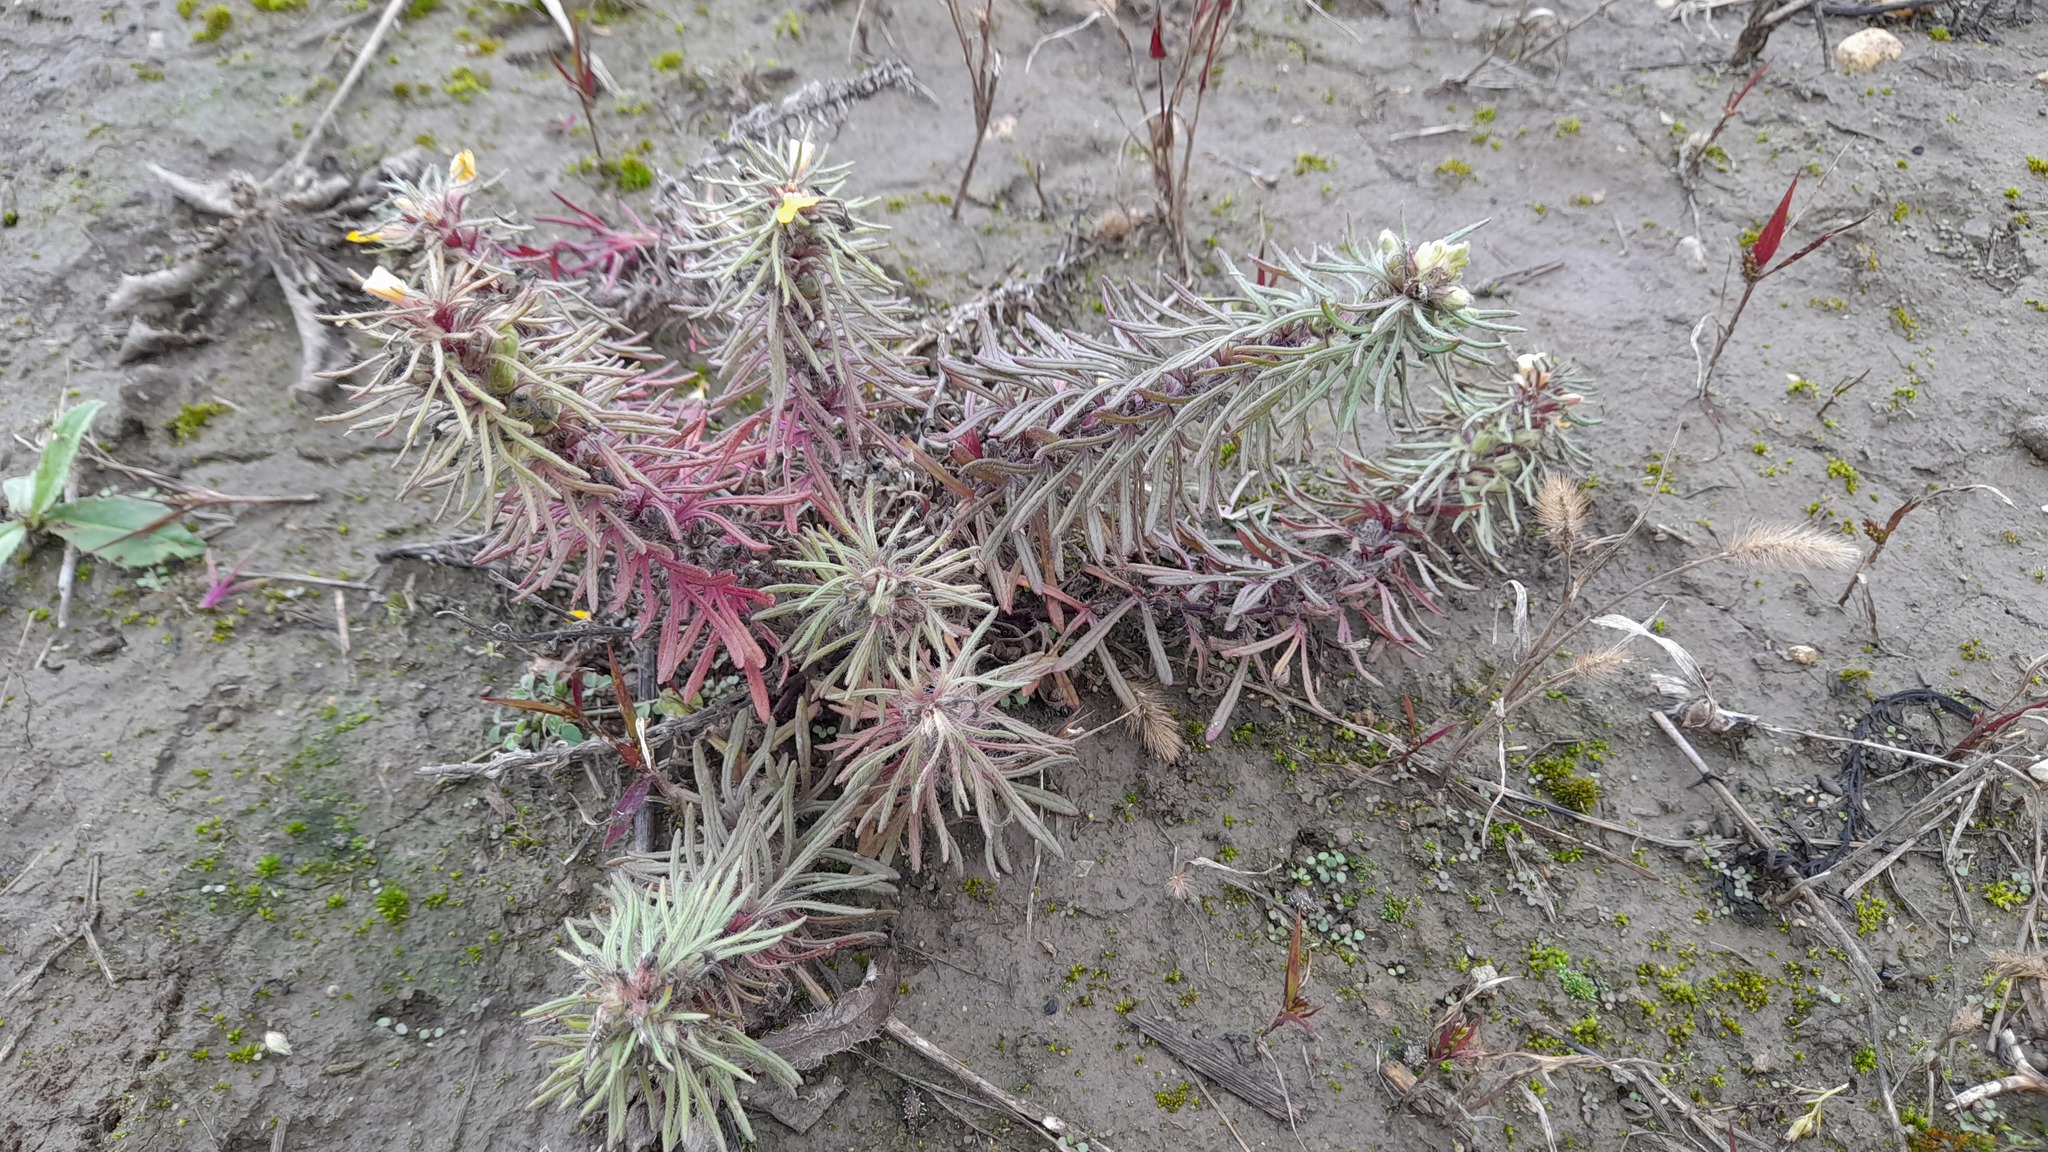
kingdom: Plantae
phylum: Tracheophyta
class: Magnoliopsida
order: Lamiales
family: Lamiaceae
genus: Ajuga
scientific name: Ajuga chamaepitys
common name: Ground-pine
